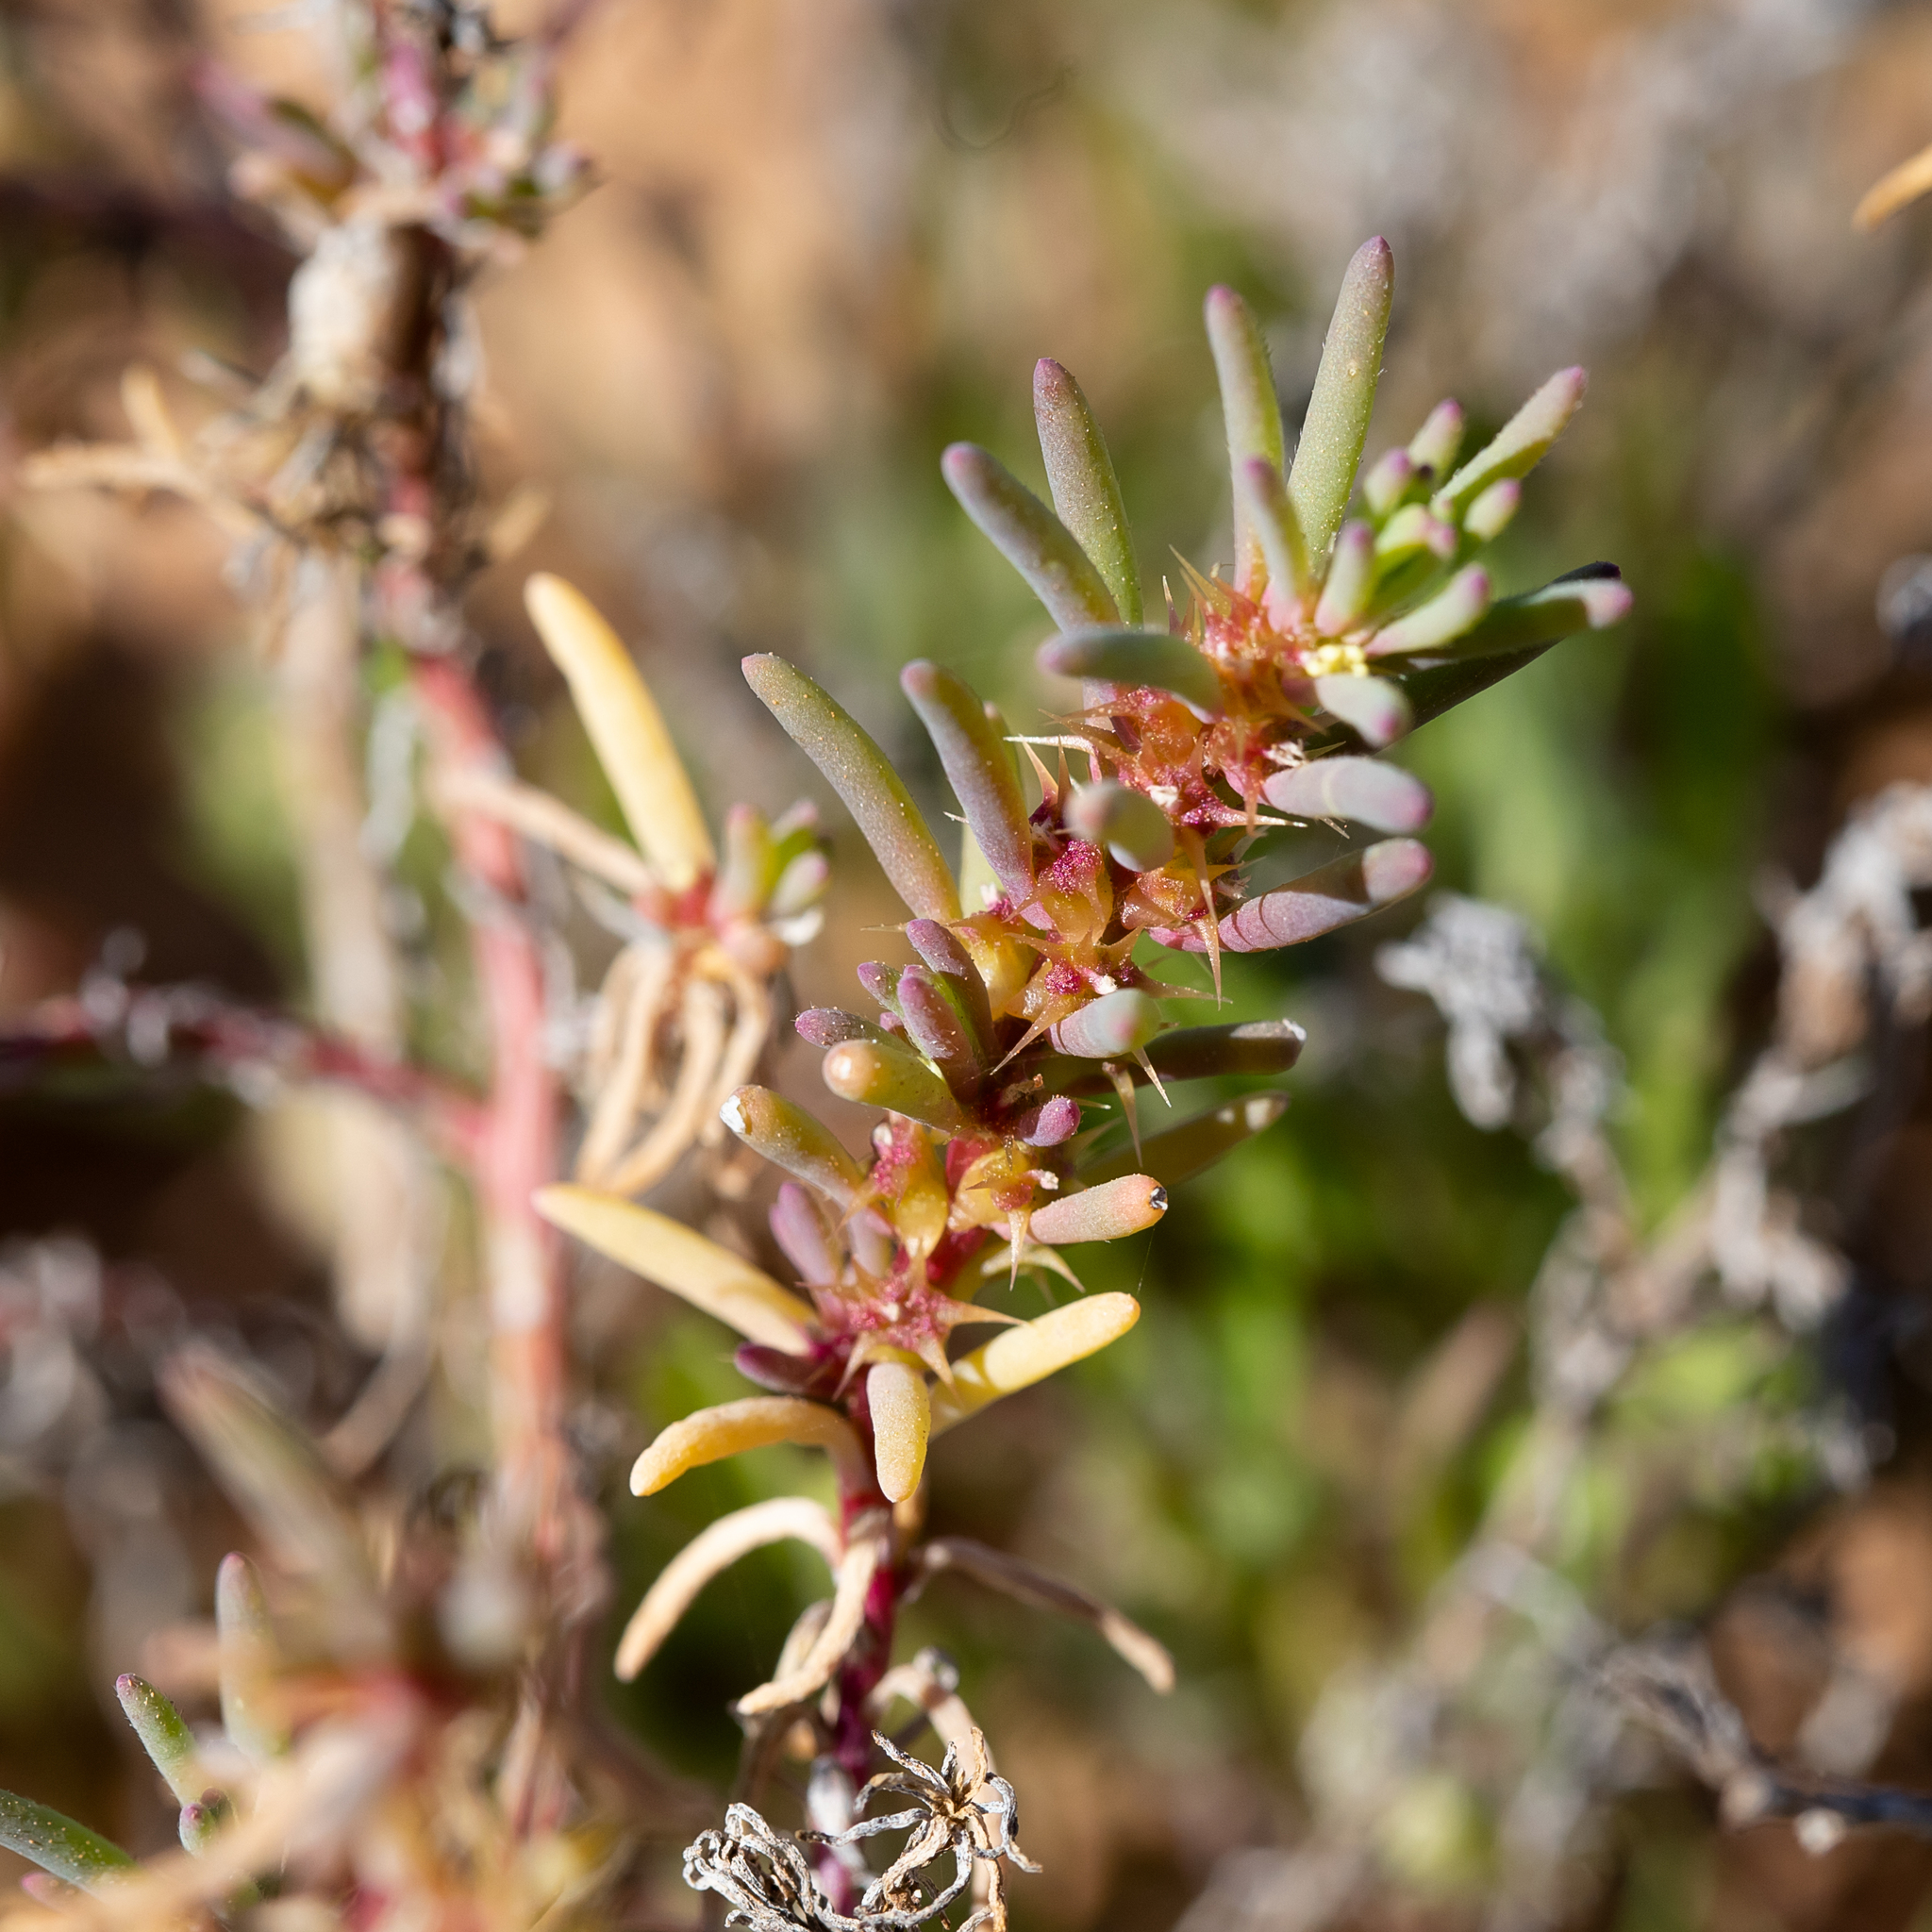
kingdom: Plantae
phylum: Tracheophyta
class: Magnoliopsida
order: Caryophyllales
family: Amaranthaceae
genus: Sclerolaena
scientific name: Sclerolaena calcarata
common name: Red copperbur
